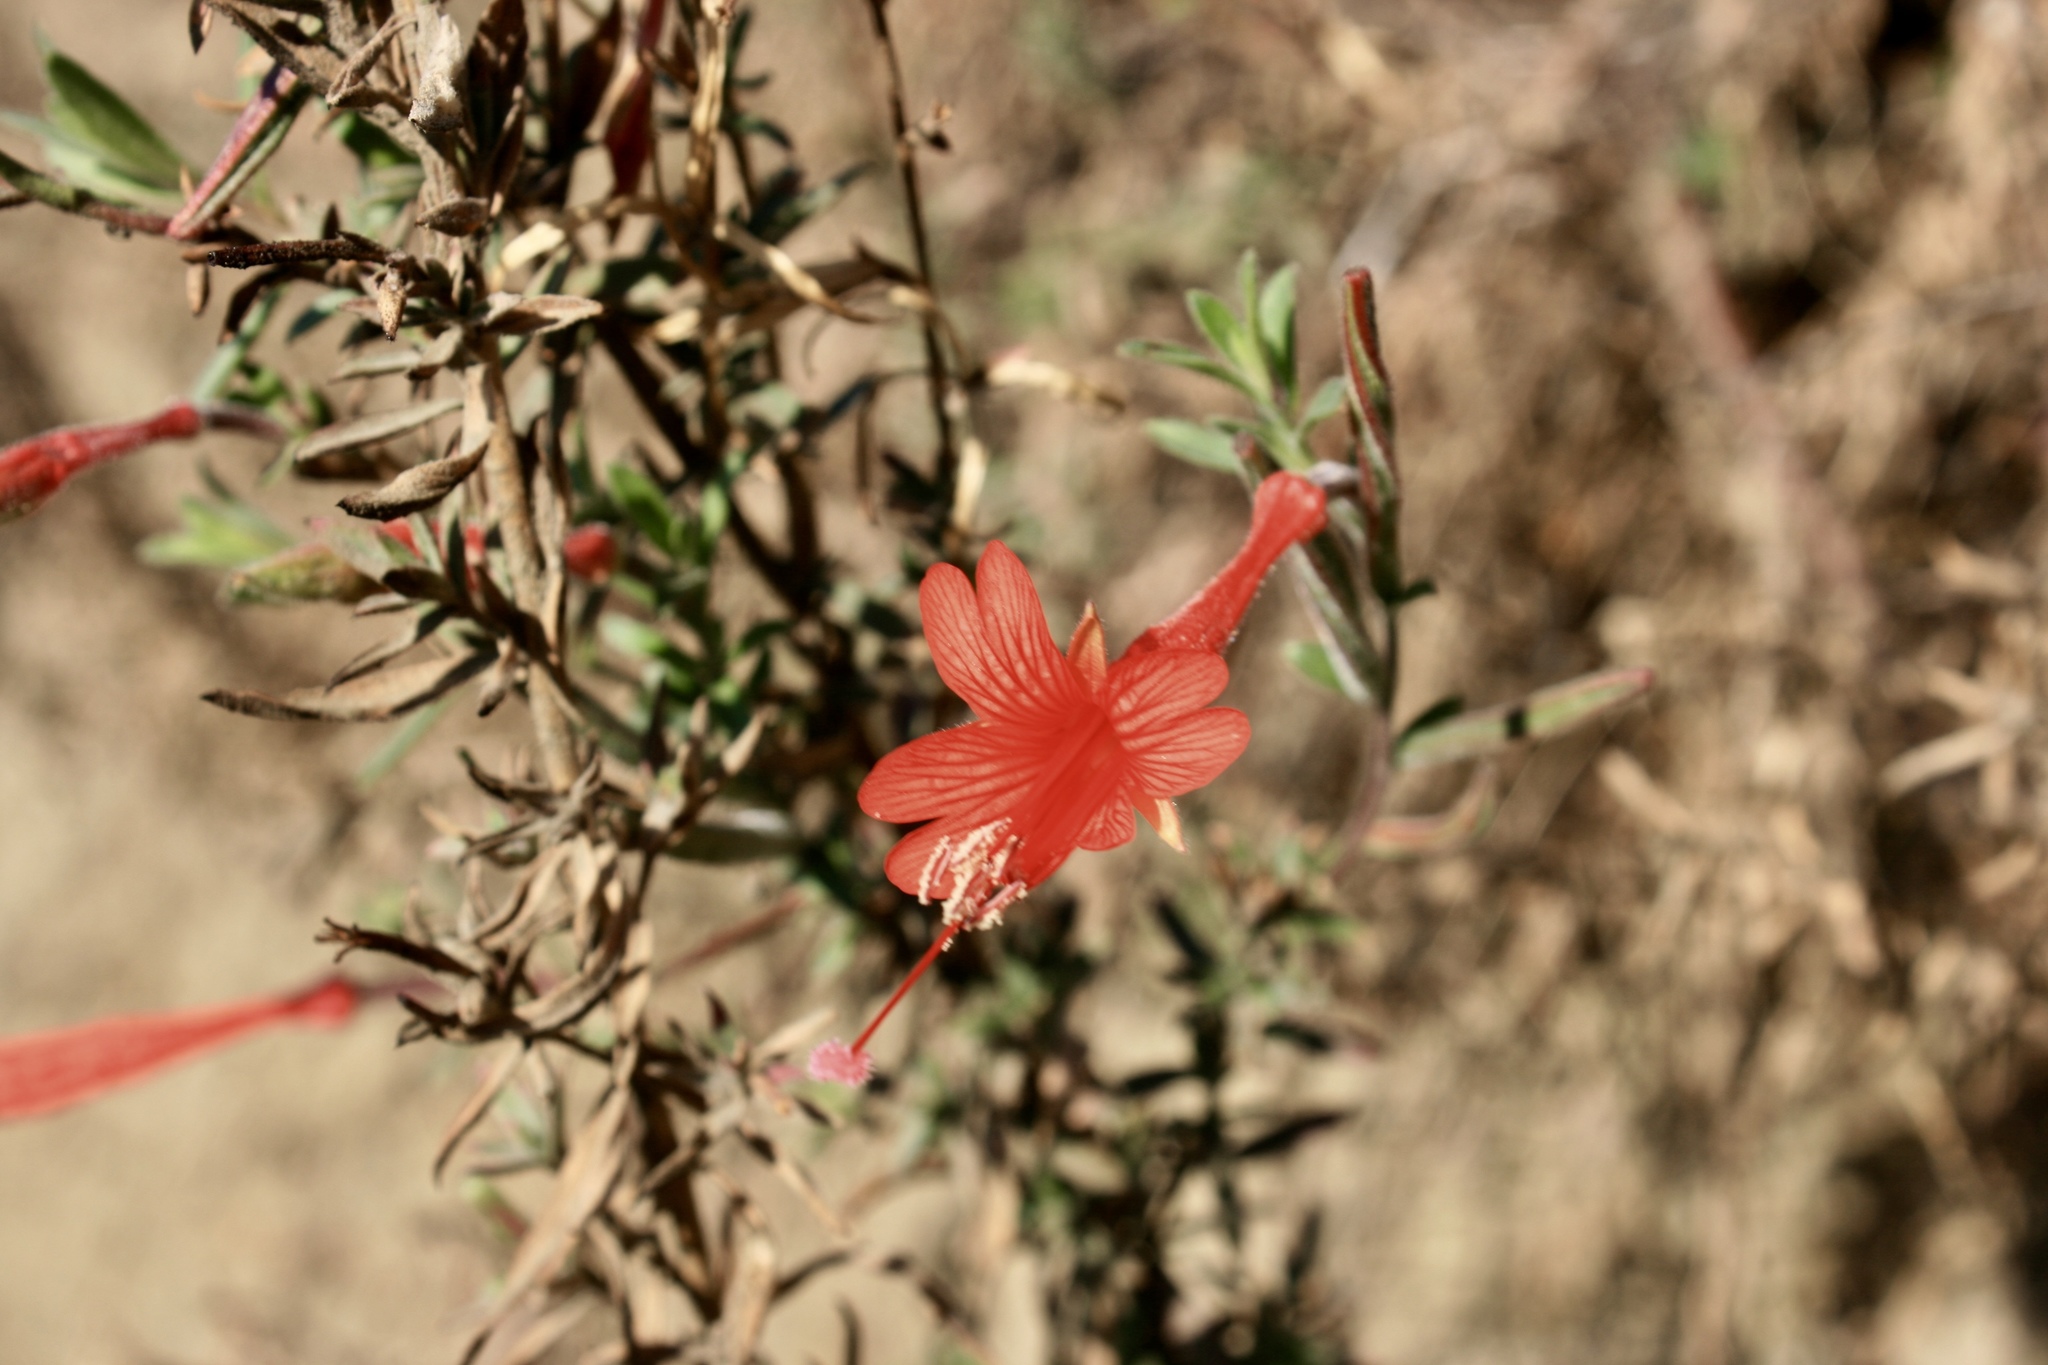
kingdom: Plantae
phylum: Tracheophyta
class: Magnoliopsida
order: Myrtales
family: Onagraceae
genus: Epilobium
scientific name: Epilobium canum
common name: California-fuchsia
